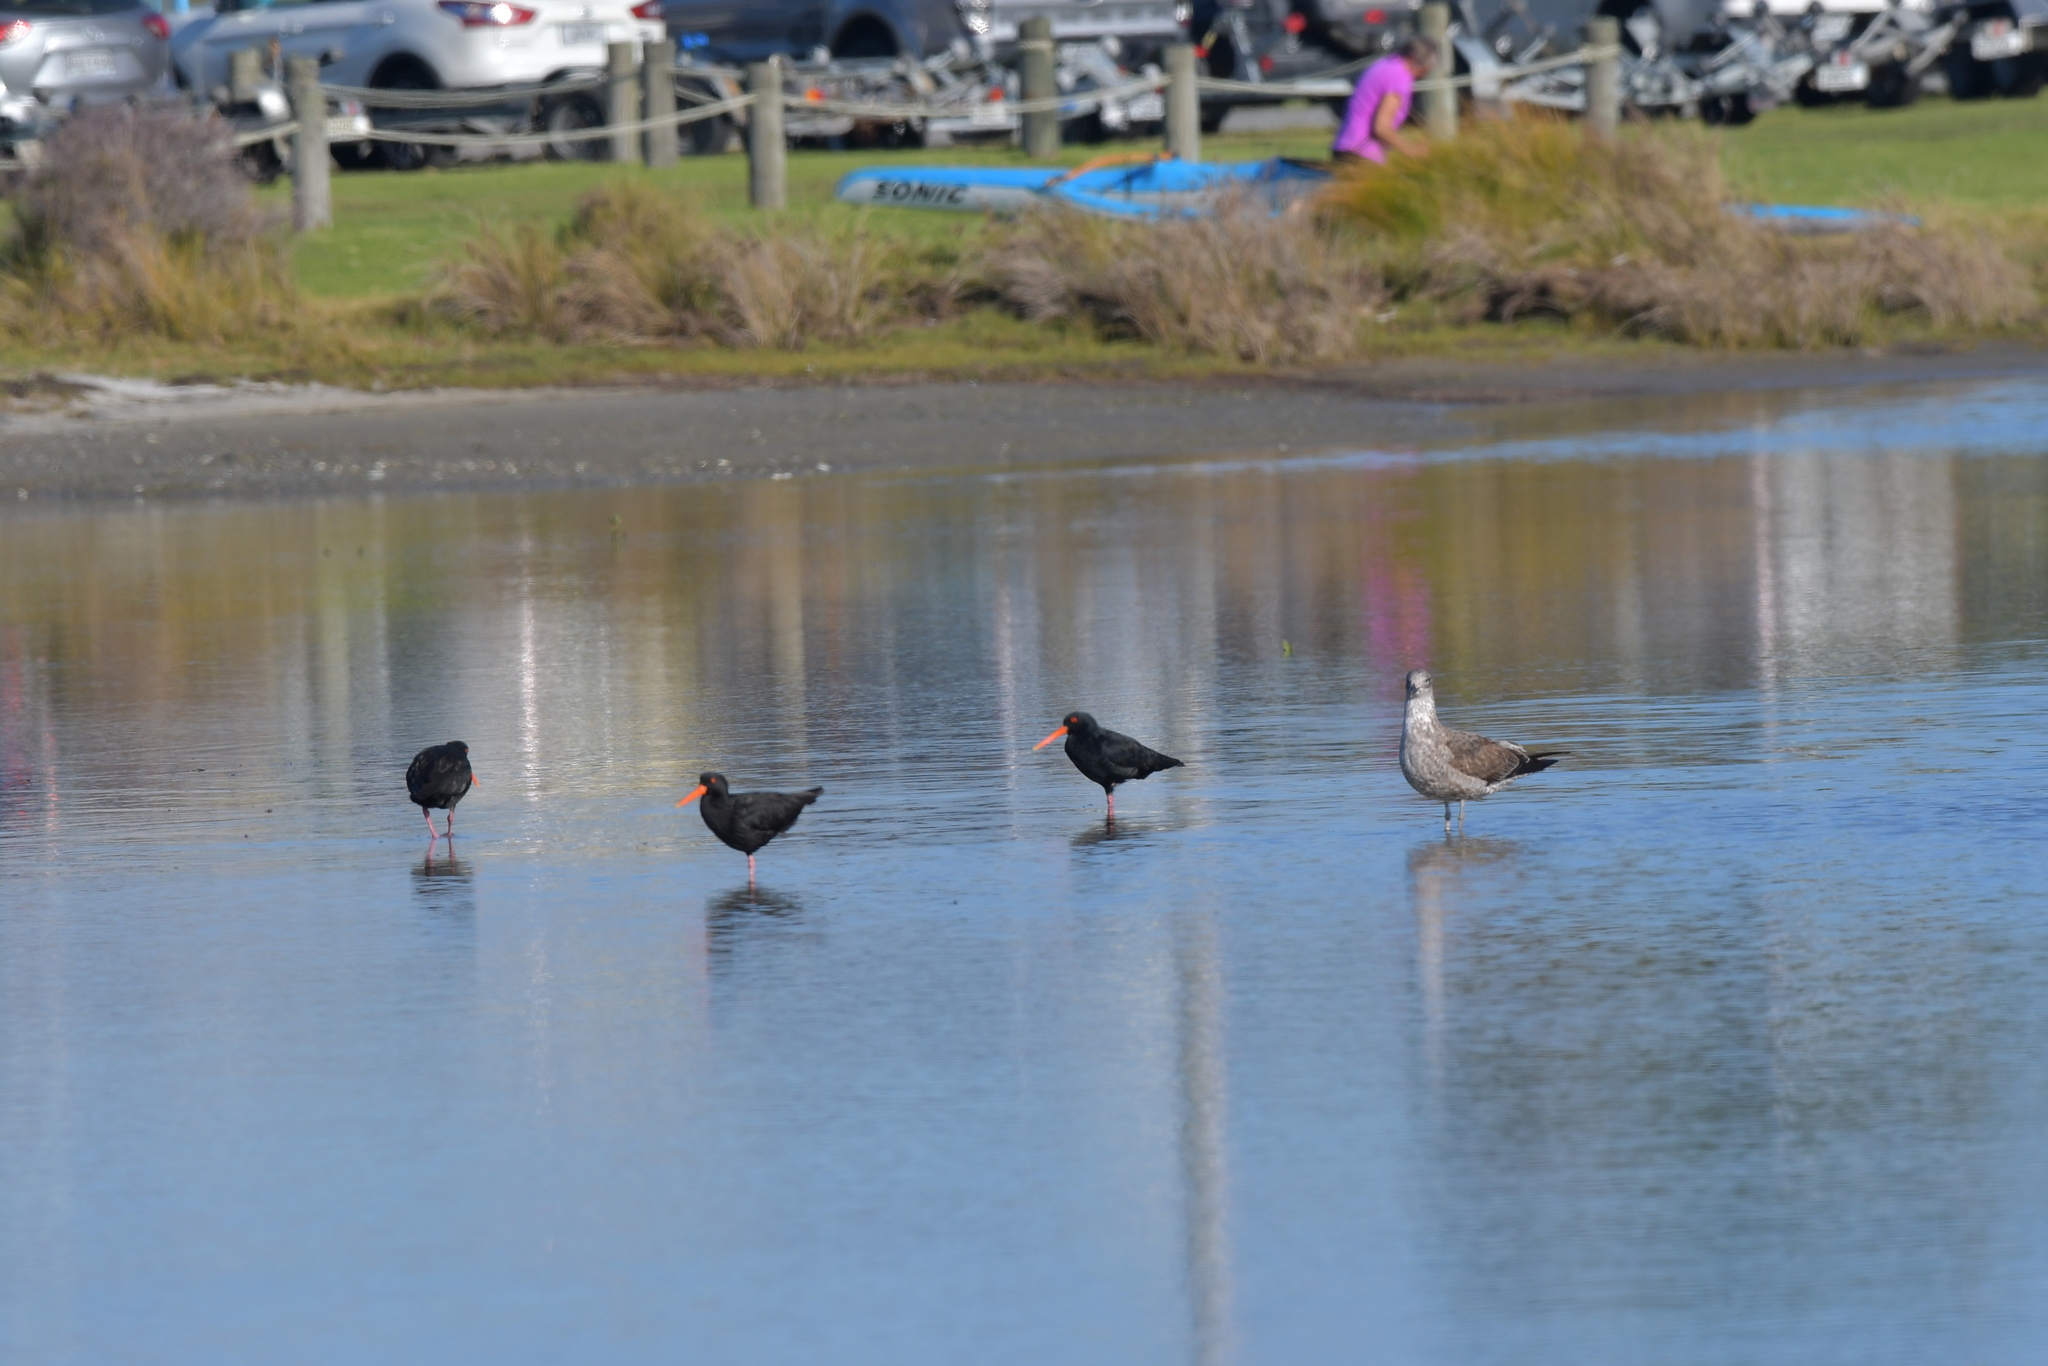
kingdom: Animalia
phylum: Chordata
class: Aves
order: Charadriiformes
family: Haematopodidae
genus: Haematopus
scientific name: Haematopus unicolor
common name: Variable oystercatcher
